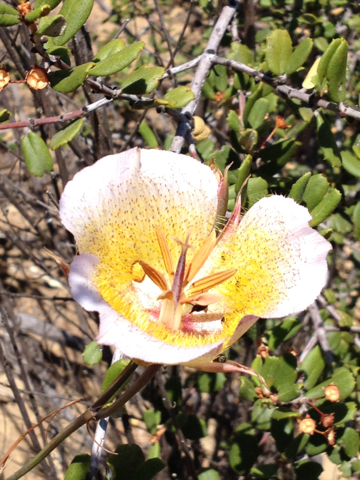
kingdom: Plantae
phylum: Tracheophyta
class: Liliopsida
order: Liliales
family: Liliaceae
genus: Calochortus
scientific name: Calochortus plummerae
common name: Plummer's mariposa-lily
